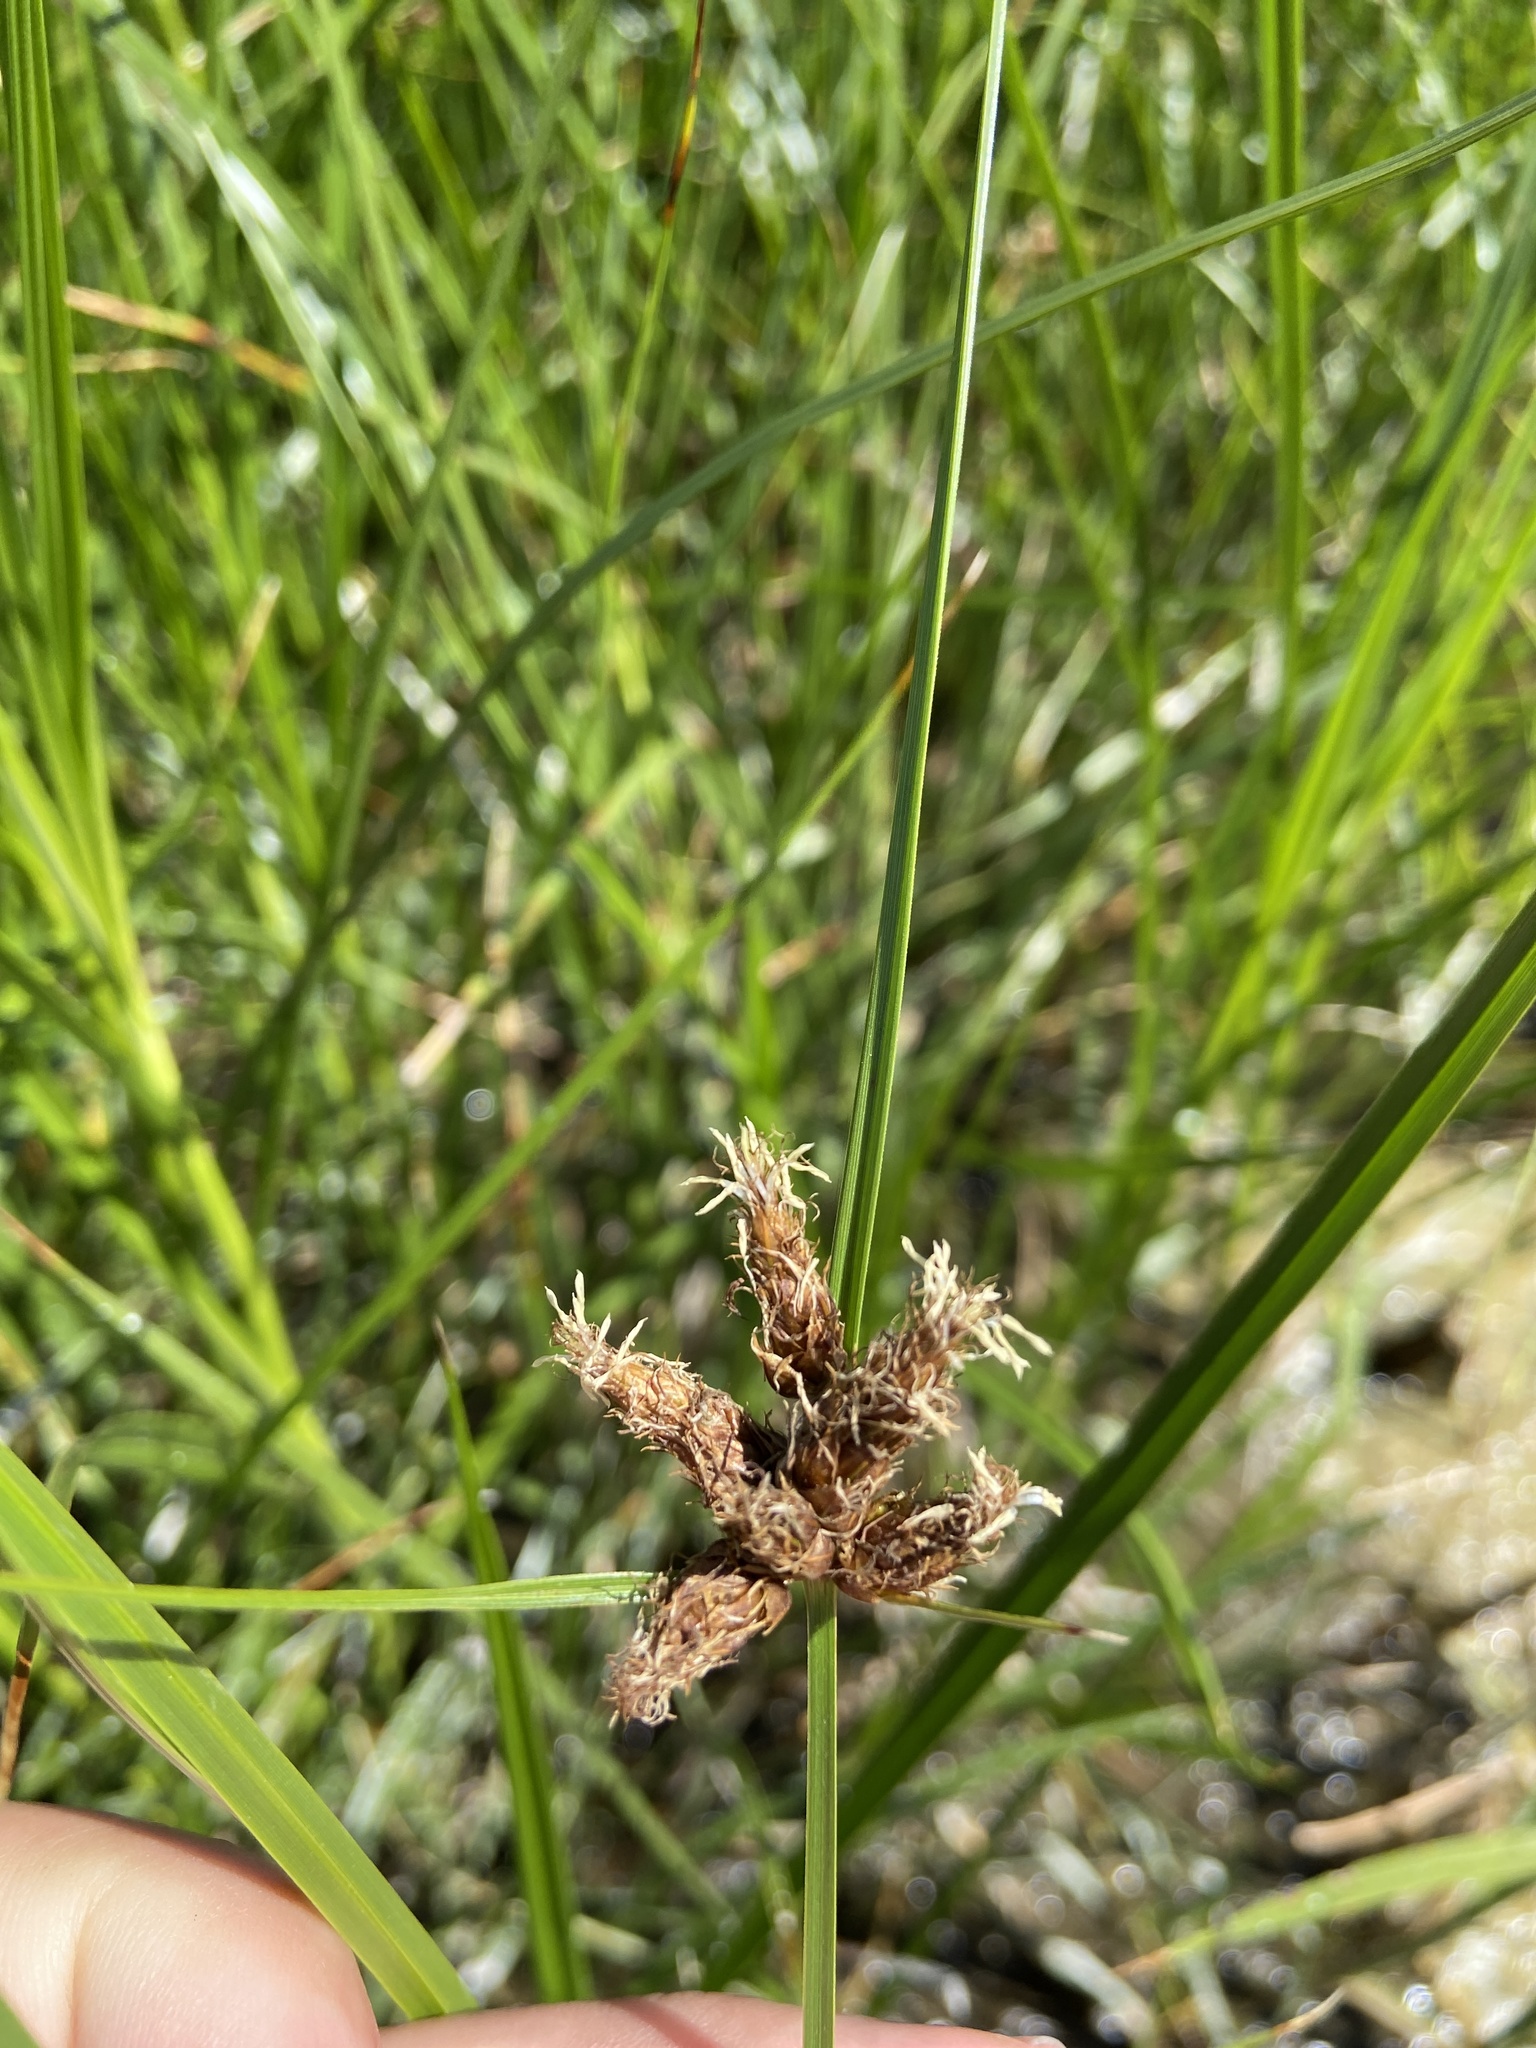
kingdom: Plantae
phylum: Tracheophyta
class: Liliopsida
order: Poales
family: Cyperaceae
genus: Bolboschoenus
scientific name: Bolboschoenus maritimus
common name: Sea club-rush
